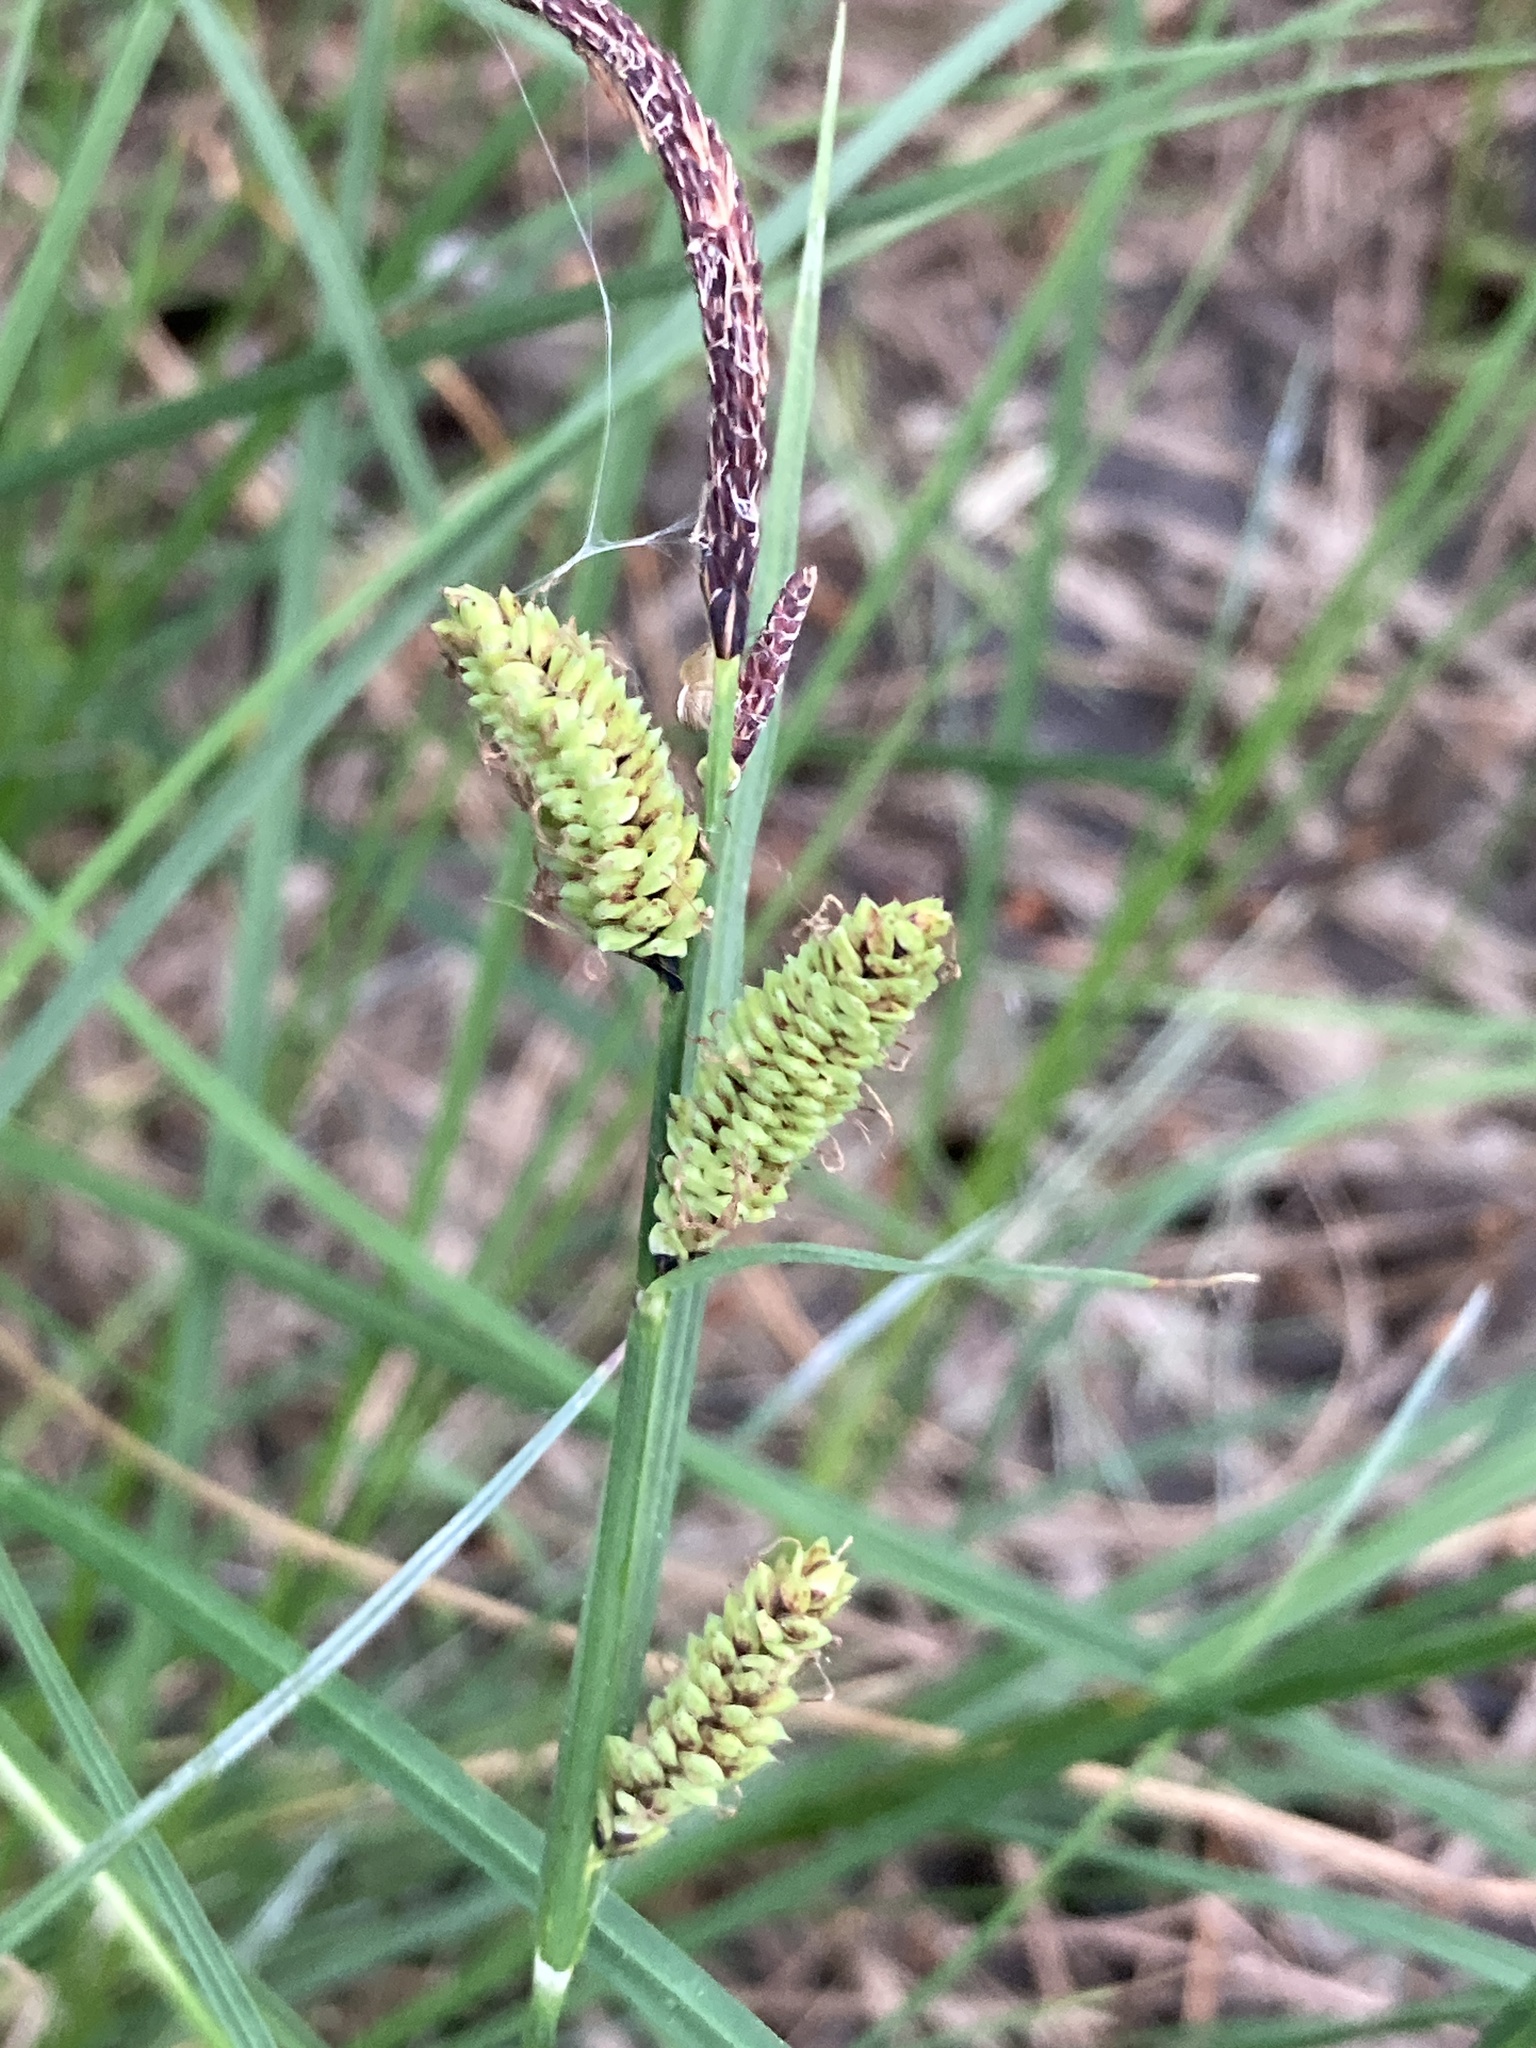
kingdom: Plantae
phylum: Tracheophyta
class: Liliopsida
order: Poales
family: Cyperaceae
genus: Carex
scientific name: Carex nigra
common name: Common sedge
